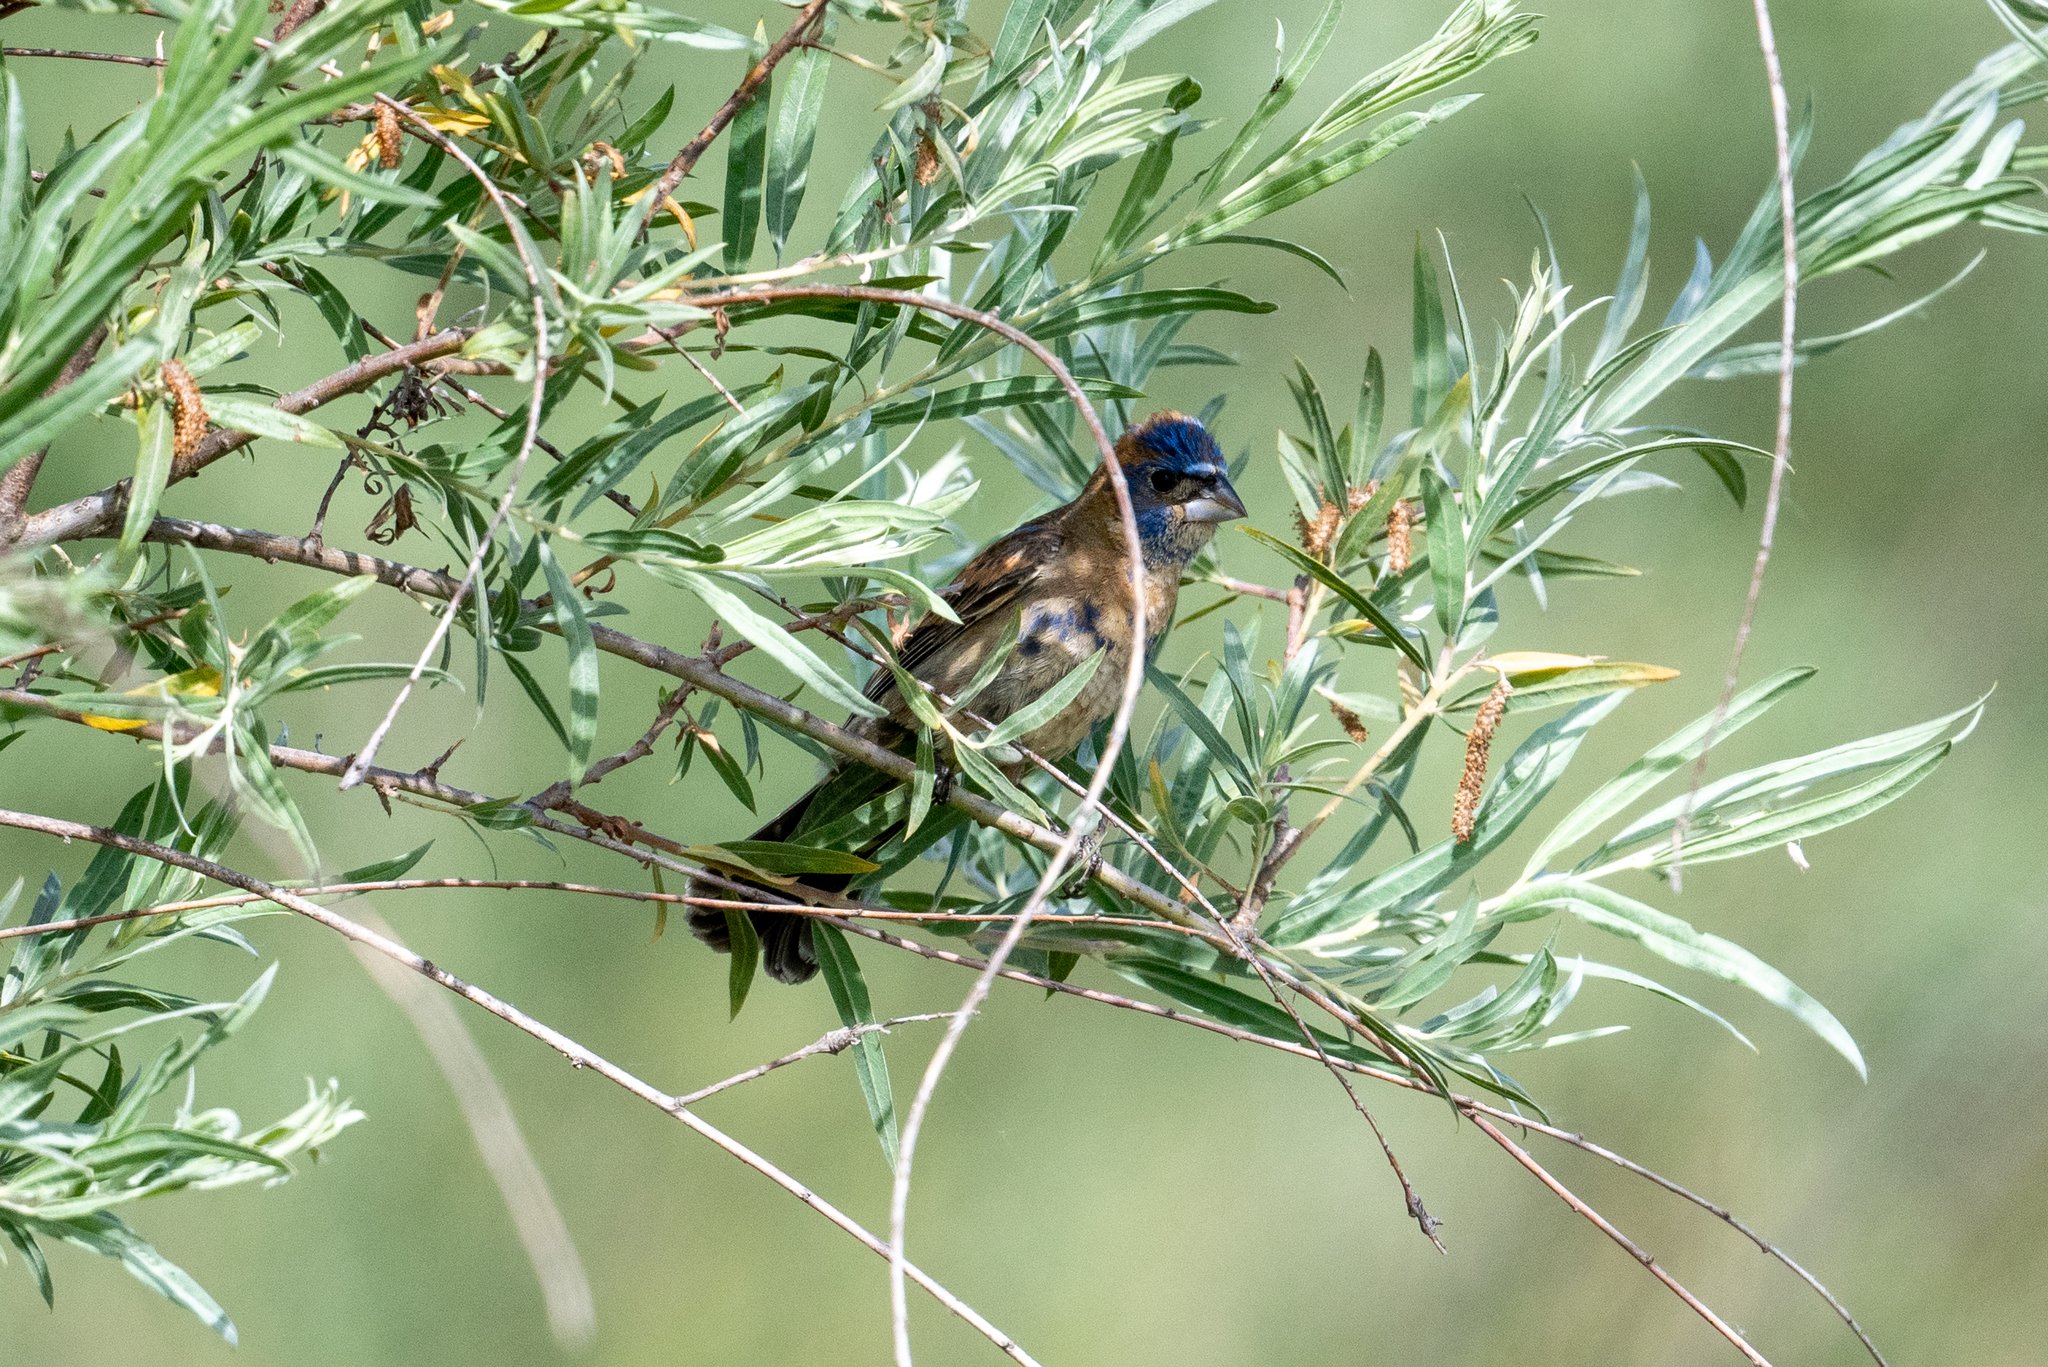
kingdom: Animalia
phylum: Chordata
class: Aves
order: Passeriformes
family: Cardinalidae
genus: Passerina
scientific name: Passerina caerulea
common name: Blue grosbeak
